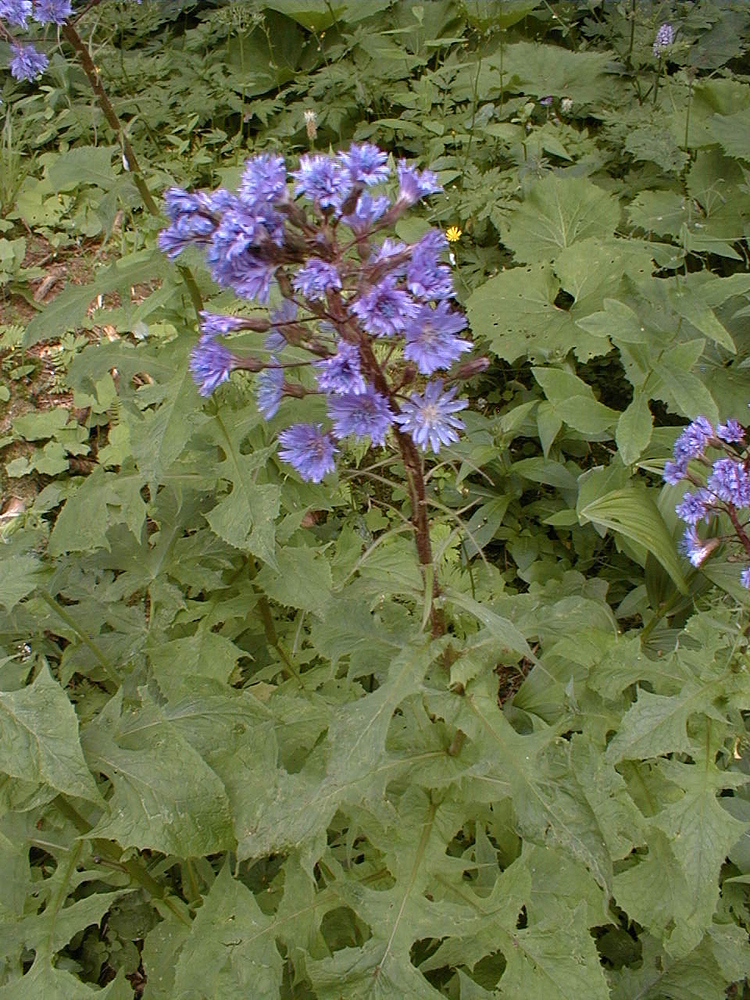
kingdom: Plantae
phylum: Tracheophyta
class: Magnoliopsida
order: Asterales
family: Asteraceae
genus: Cicerbita
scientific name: Cicerbita alpina
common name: Alpine blue-sow-thistle
